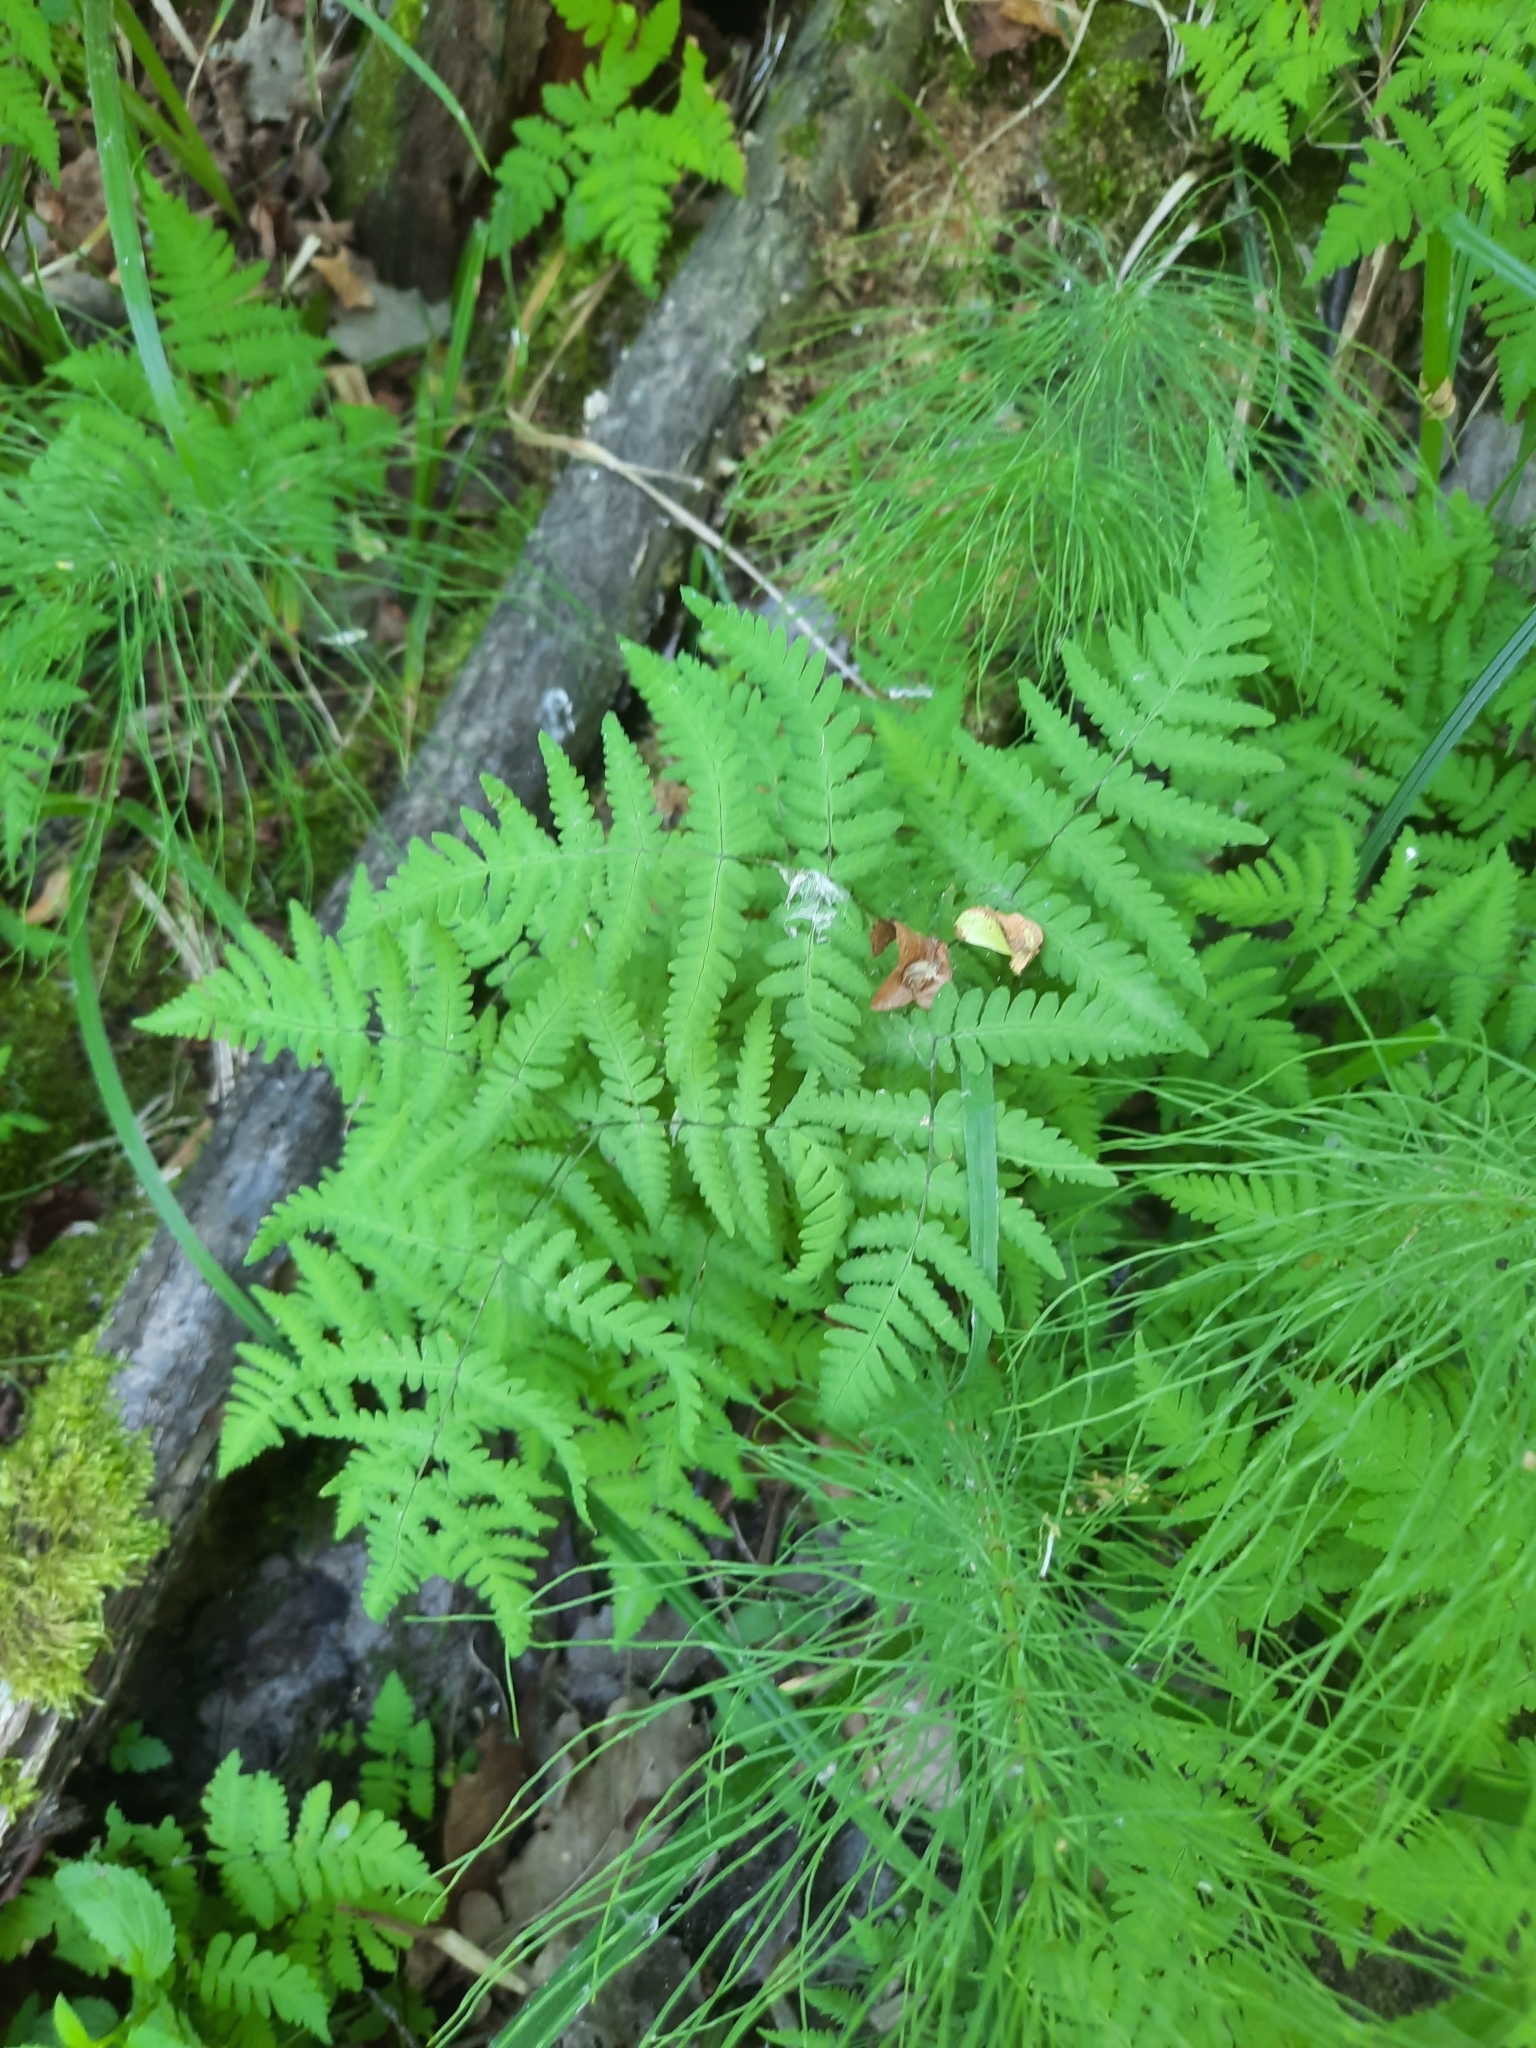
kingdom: Plantae
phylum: Tracheophyta
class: Polypodiopsida
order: Polypodiales
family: Cystopteridaceae
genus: Gymnocarpium
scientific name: Gymnocarpium dryopteris
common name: Oak fern
